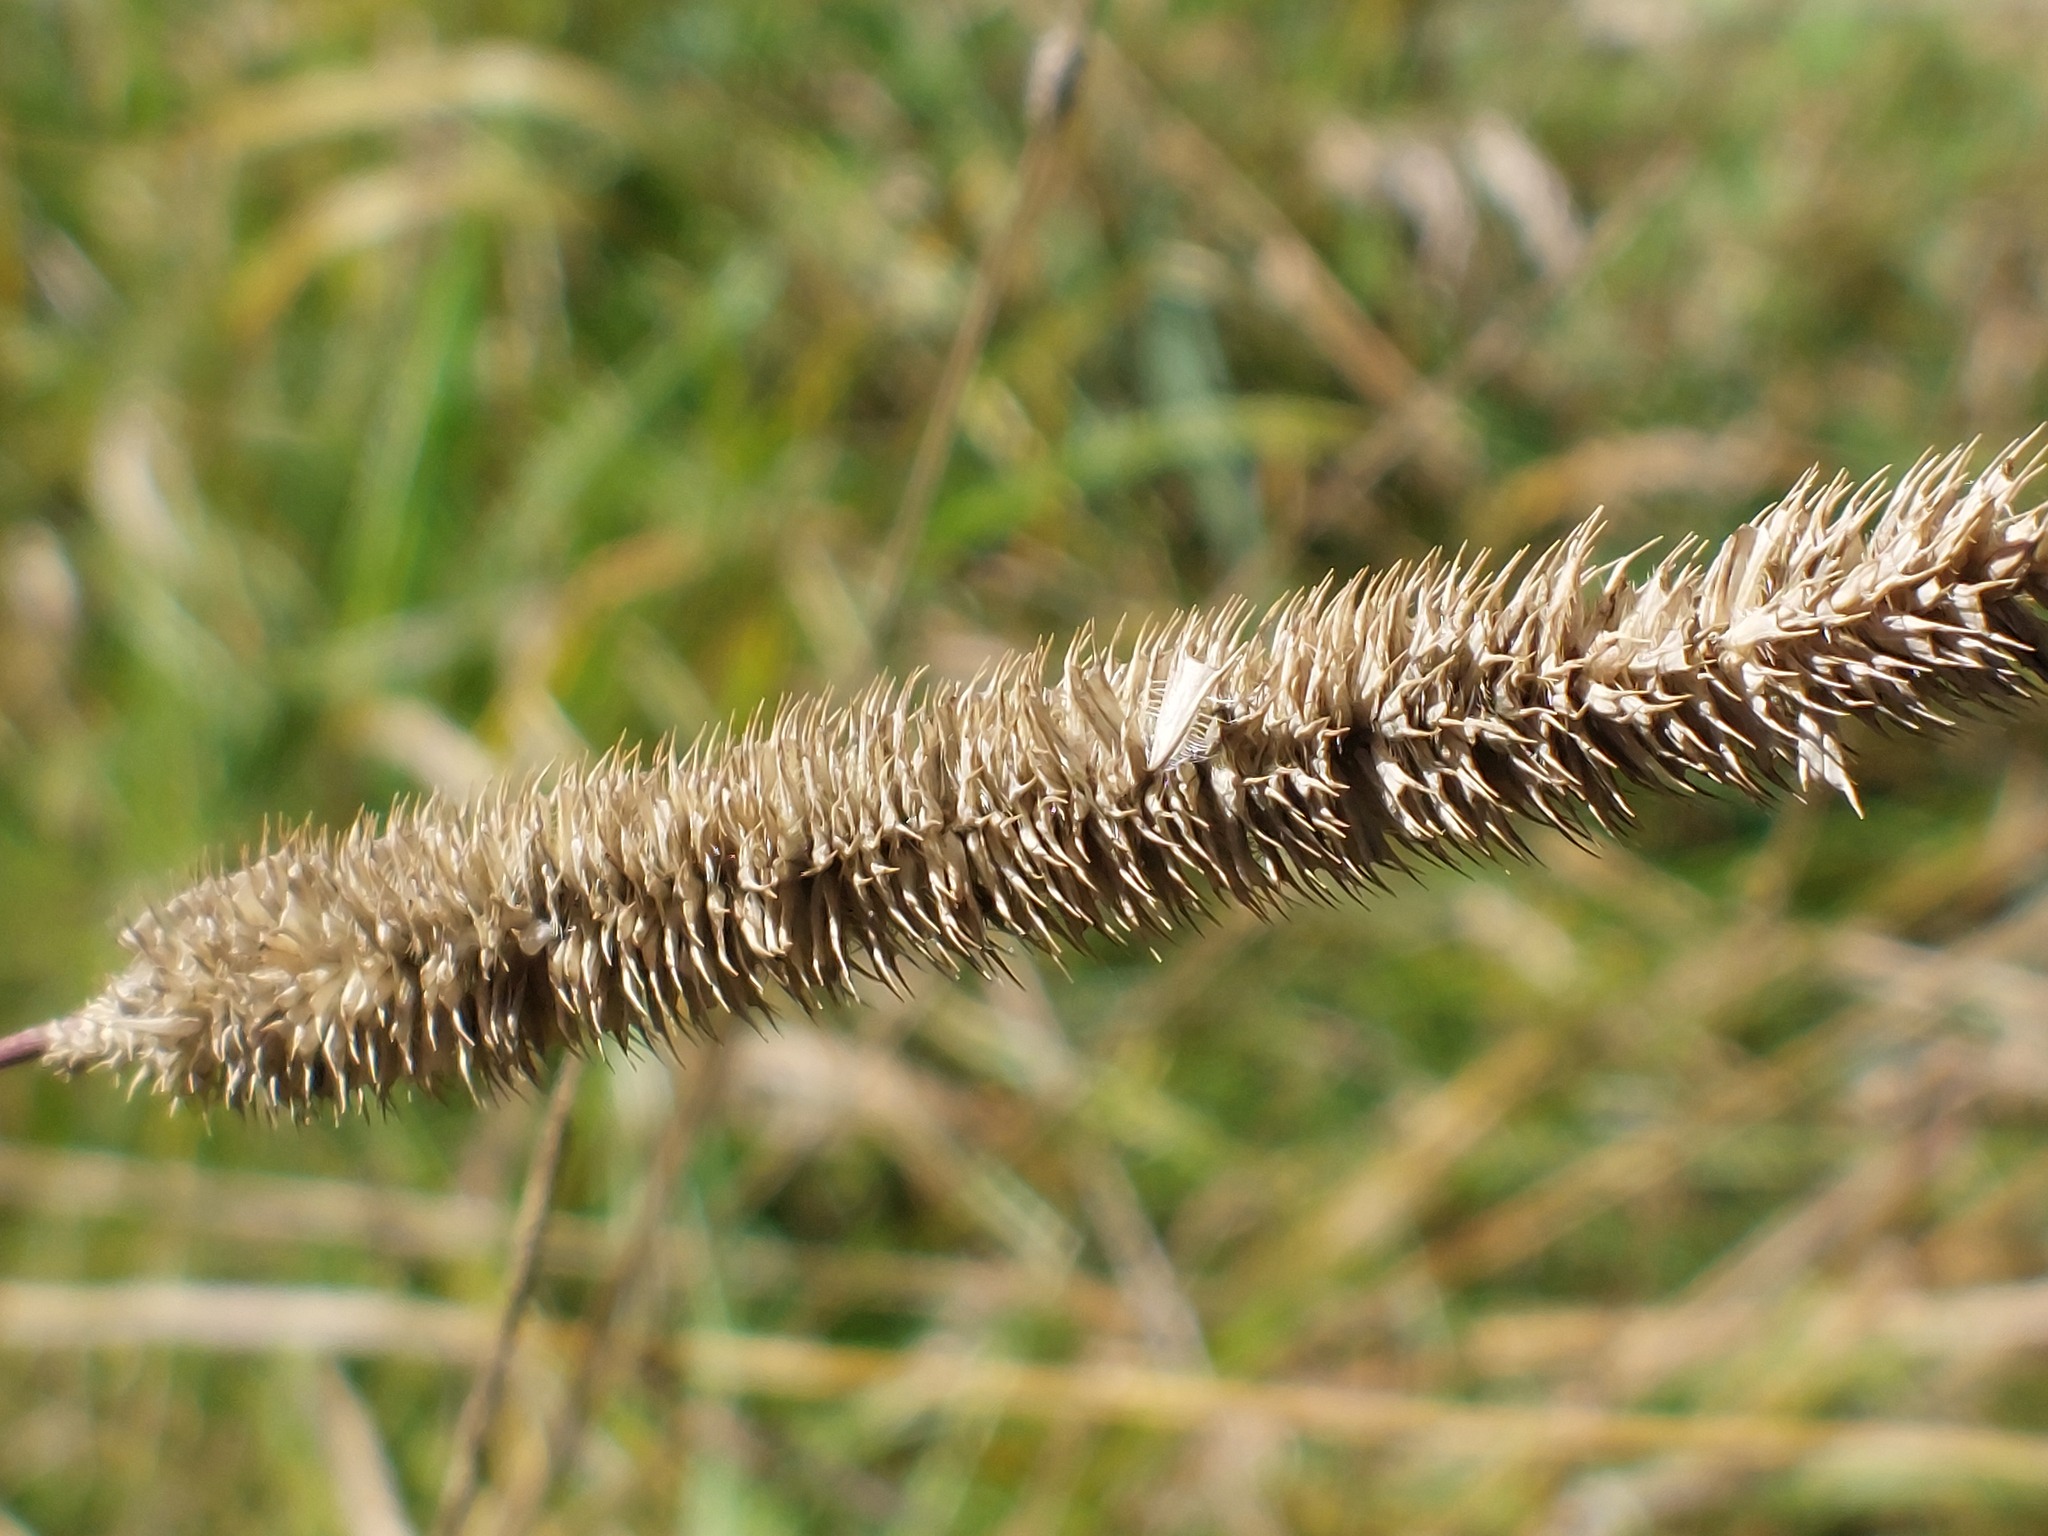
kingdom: Plantae
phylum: Tracheophyta
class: Liliopsida
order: Poales
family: Poaceae
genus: Phleum
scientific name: Phleum pratense
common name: Timothy grass
